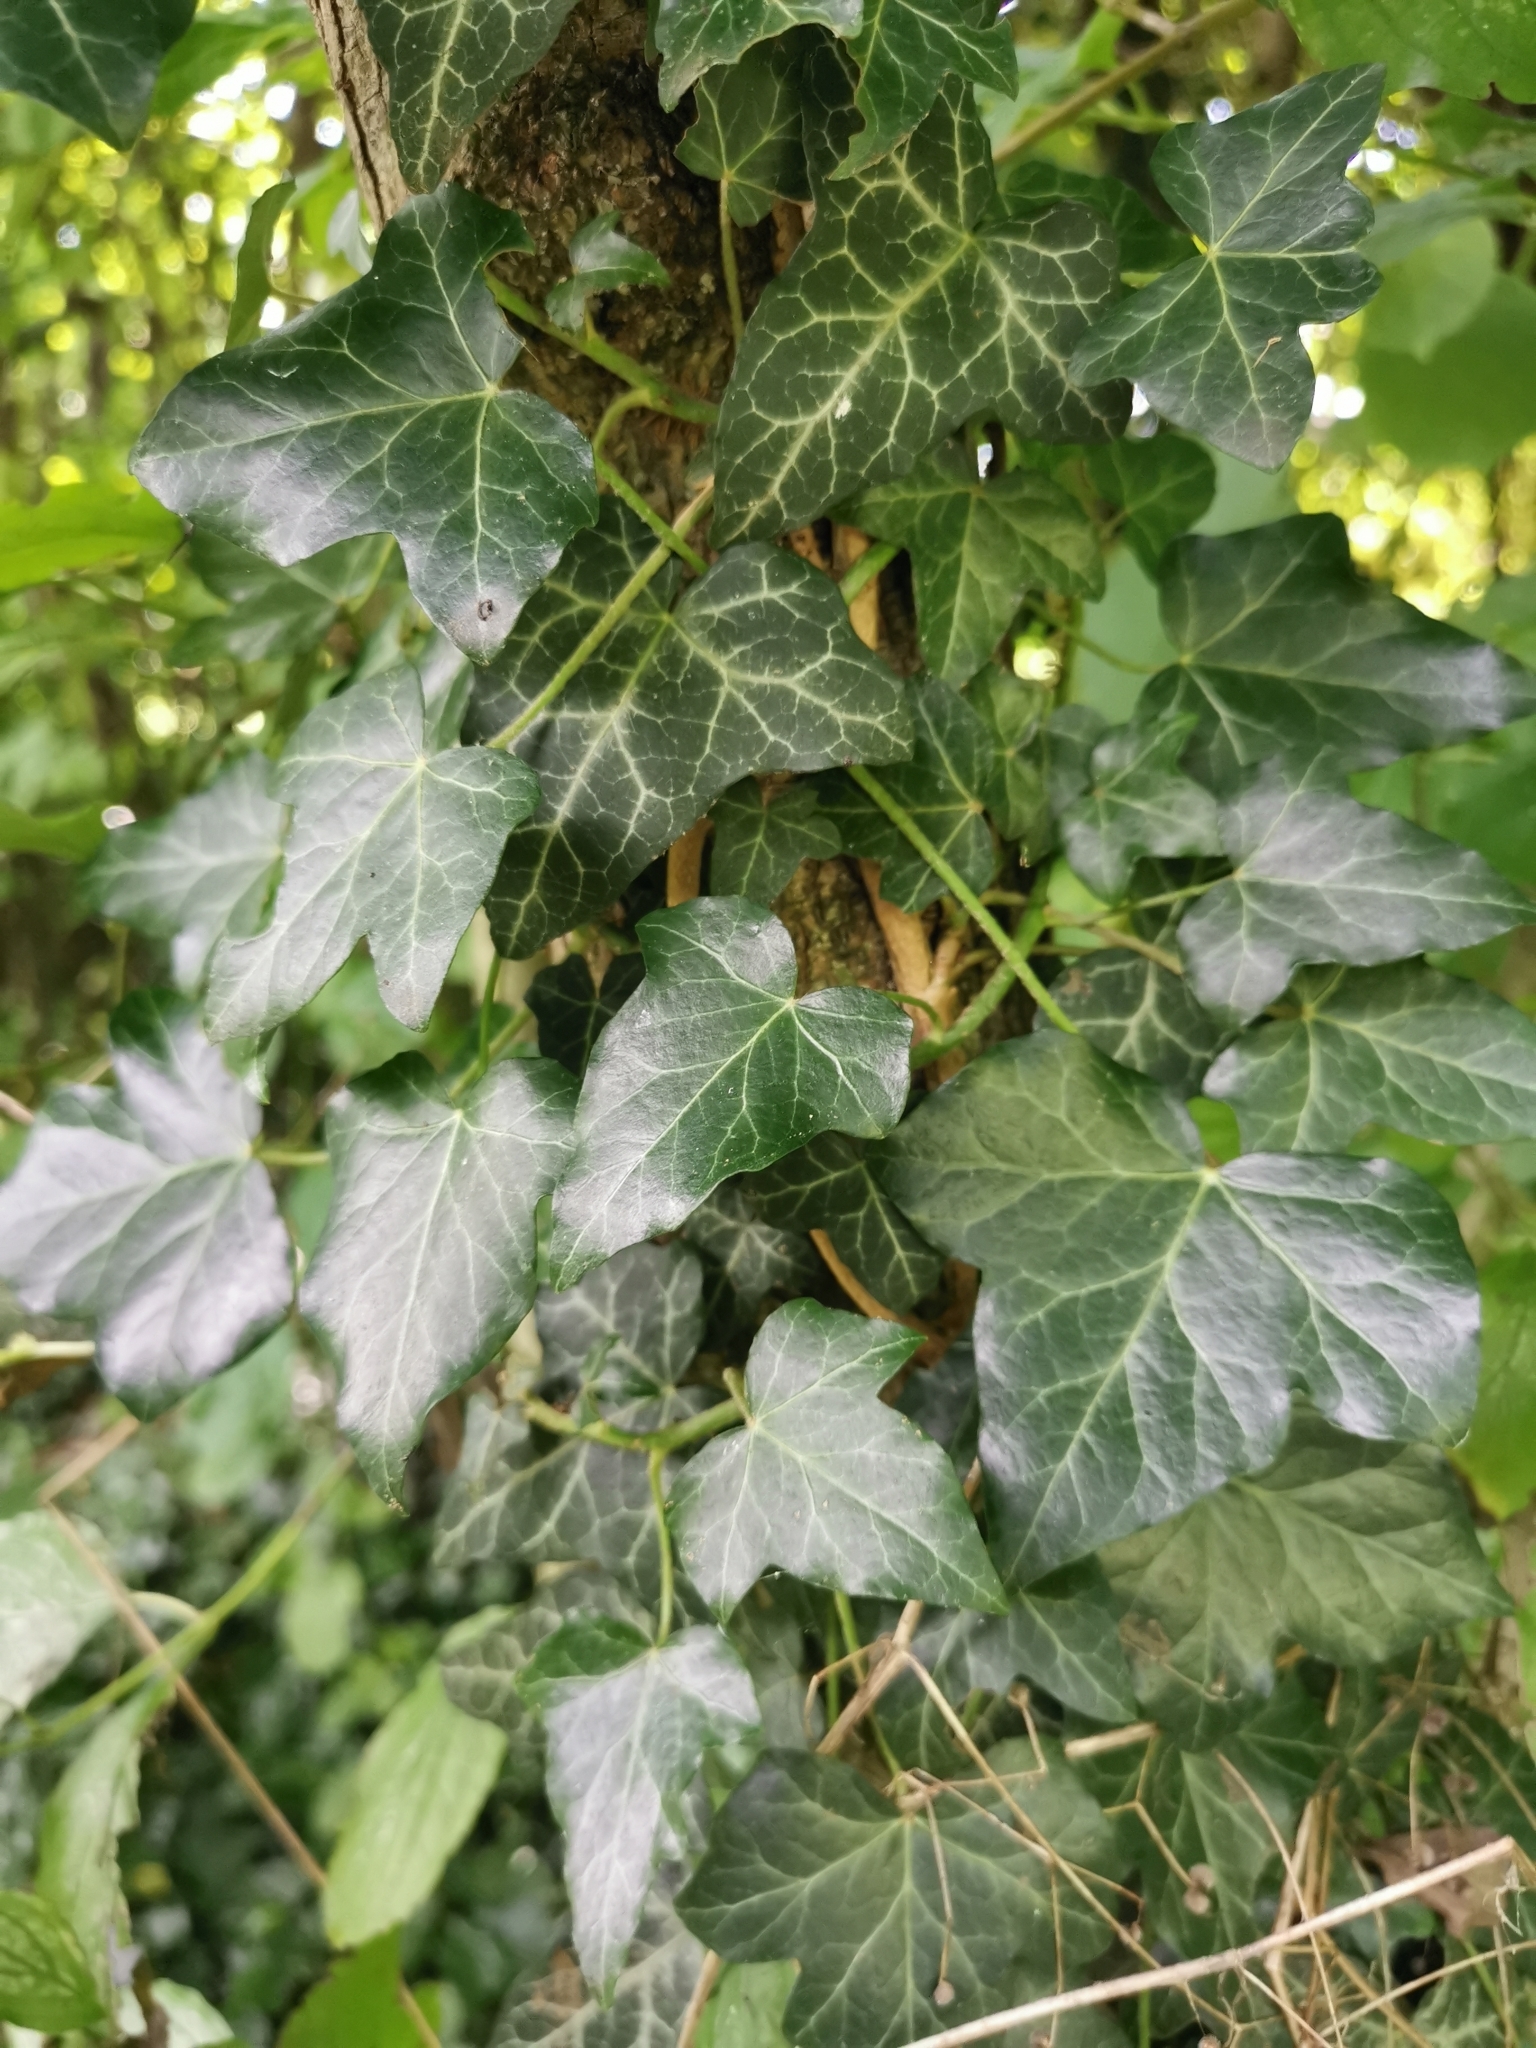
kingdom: Plantae
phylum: Tracheophyta
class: Magnoliopsida
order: Apiales
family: Araliaceae
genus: Hedera
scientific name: Hedera helix
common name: Ivy
